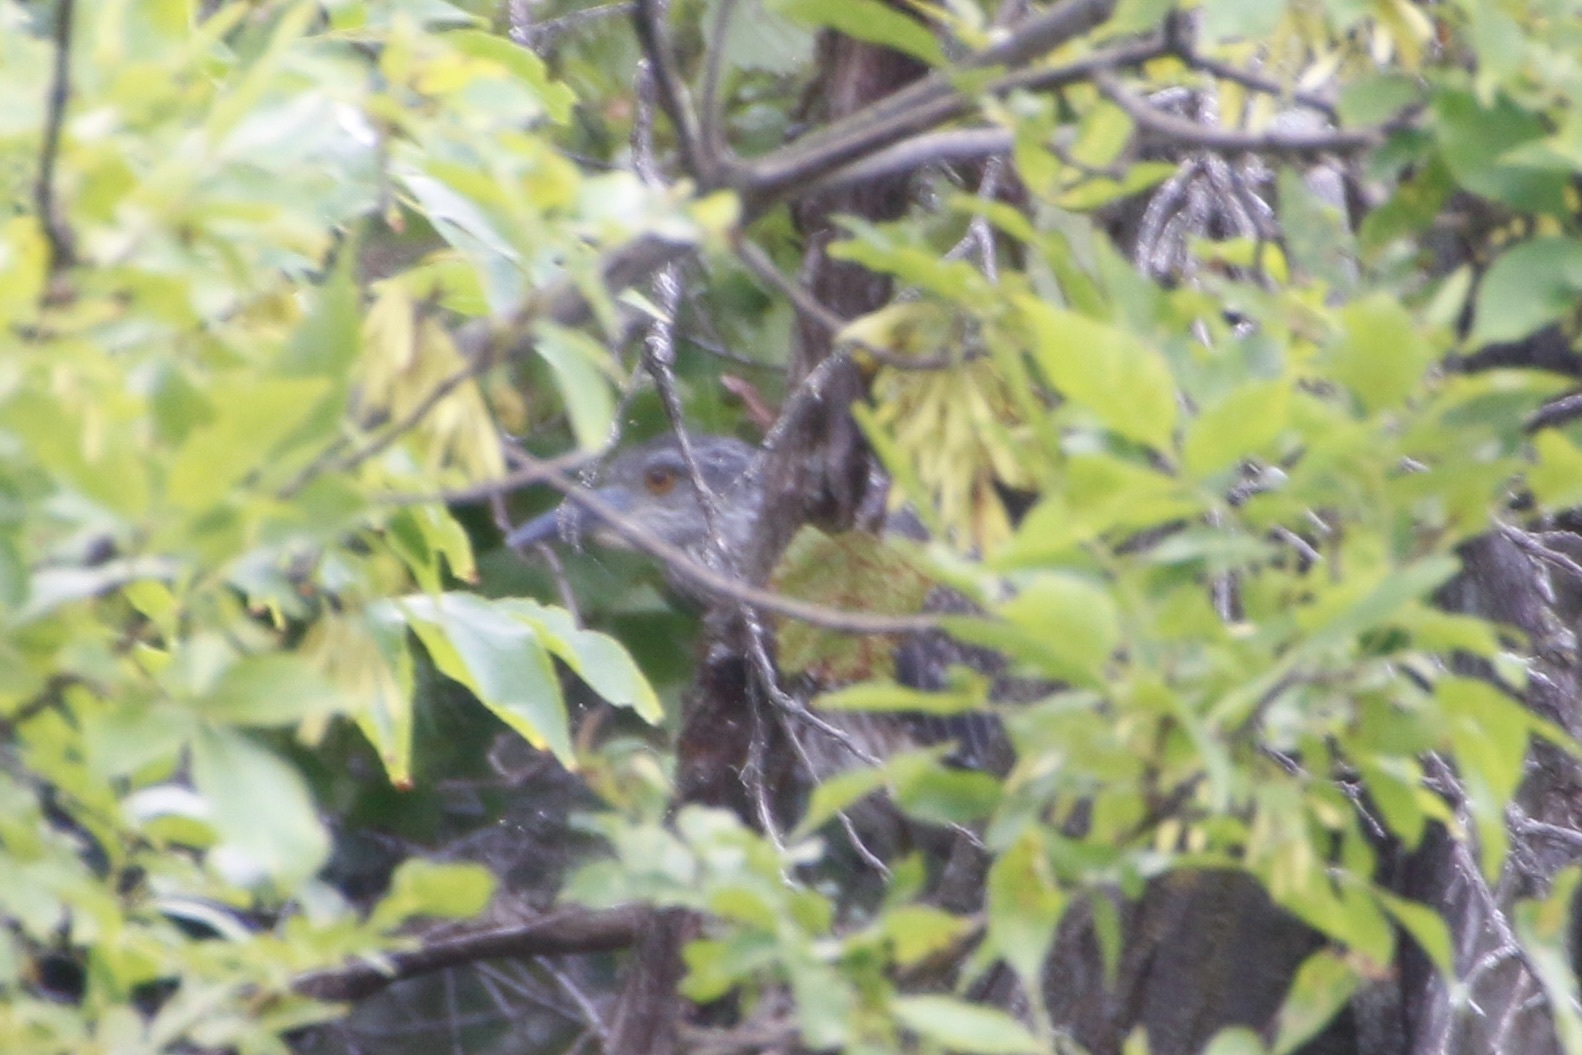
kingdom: Animalia
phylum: Chordata
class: Aves
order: Pelecaniformes
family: Ardeidae
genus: Nyctanassa
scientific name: Nyctanassa violacea
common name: Yellow-crowned night heron
